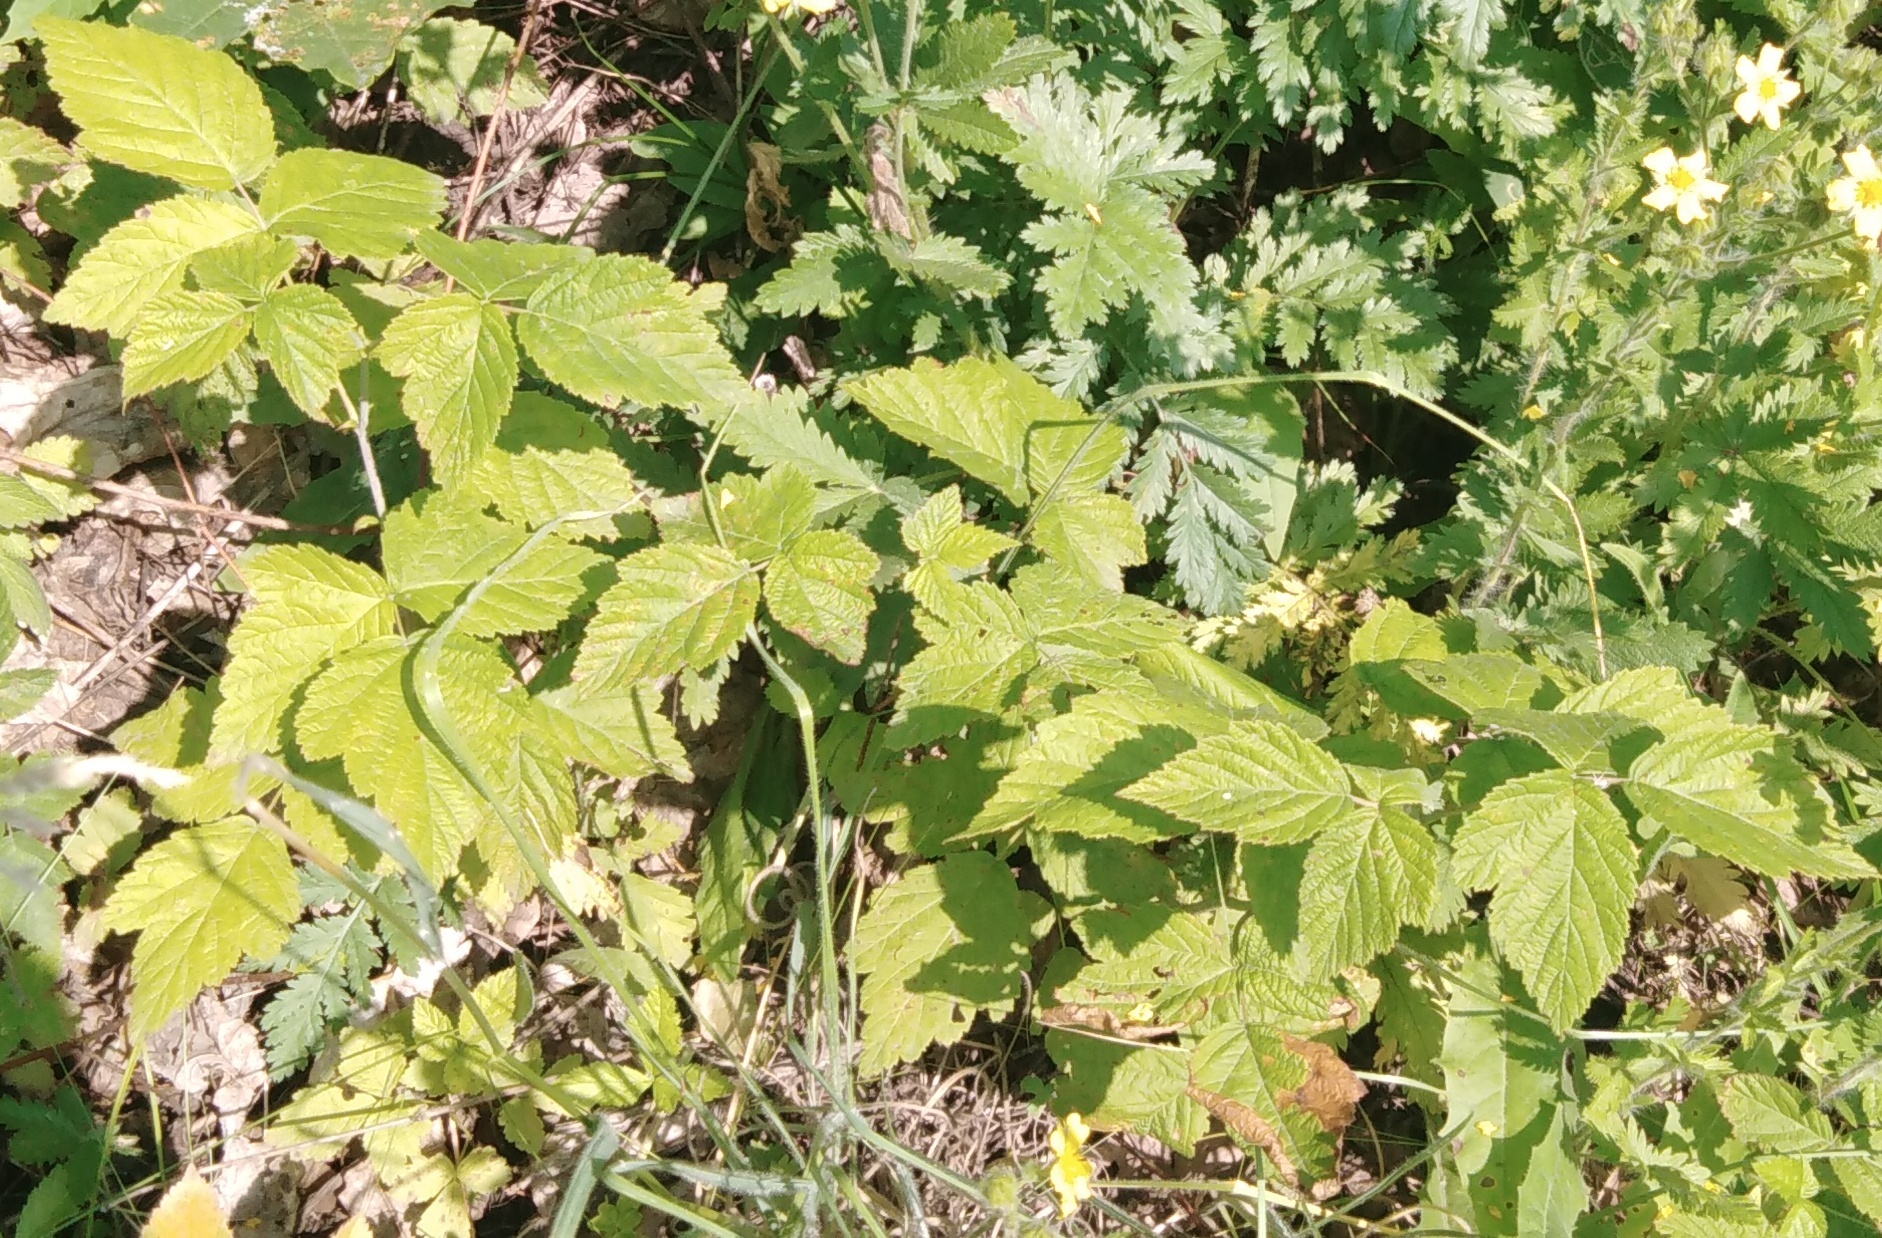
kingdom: Plantae
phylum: Tracheophyta
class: Magnoliopsida
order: Rosales
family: Rosaceae
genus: Rubus
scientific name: Rubus caesius
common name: Dewberry
